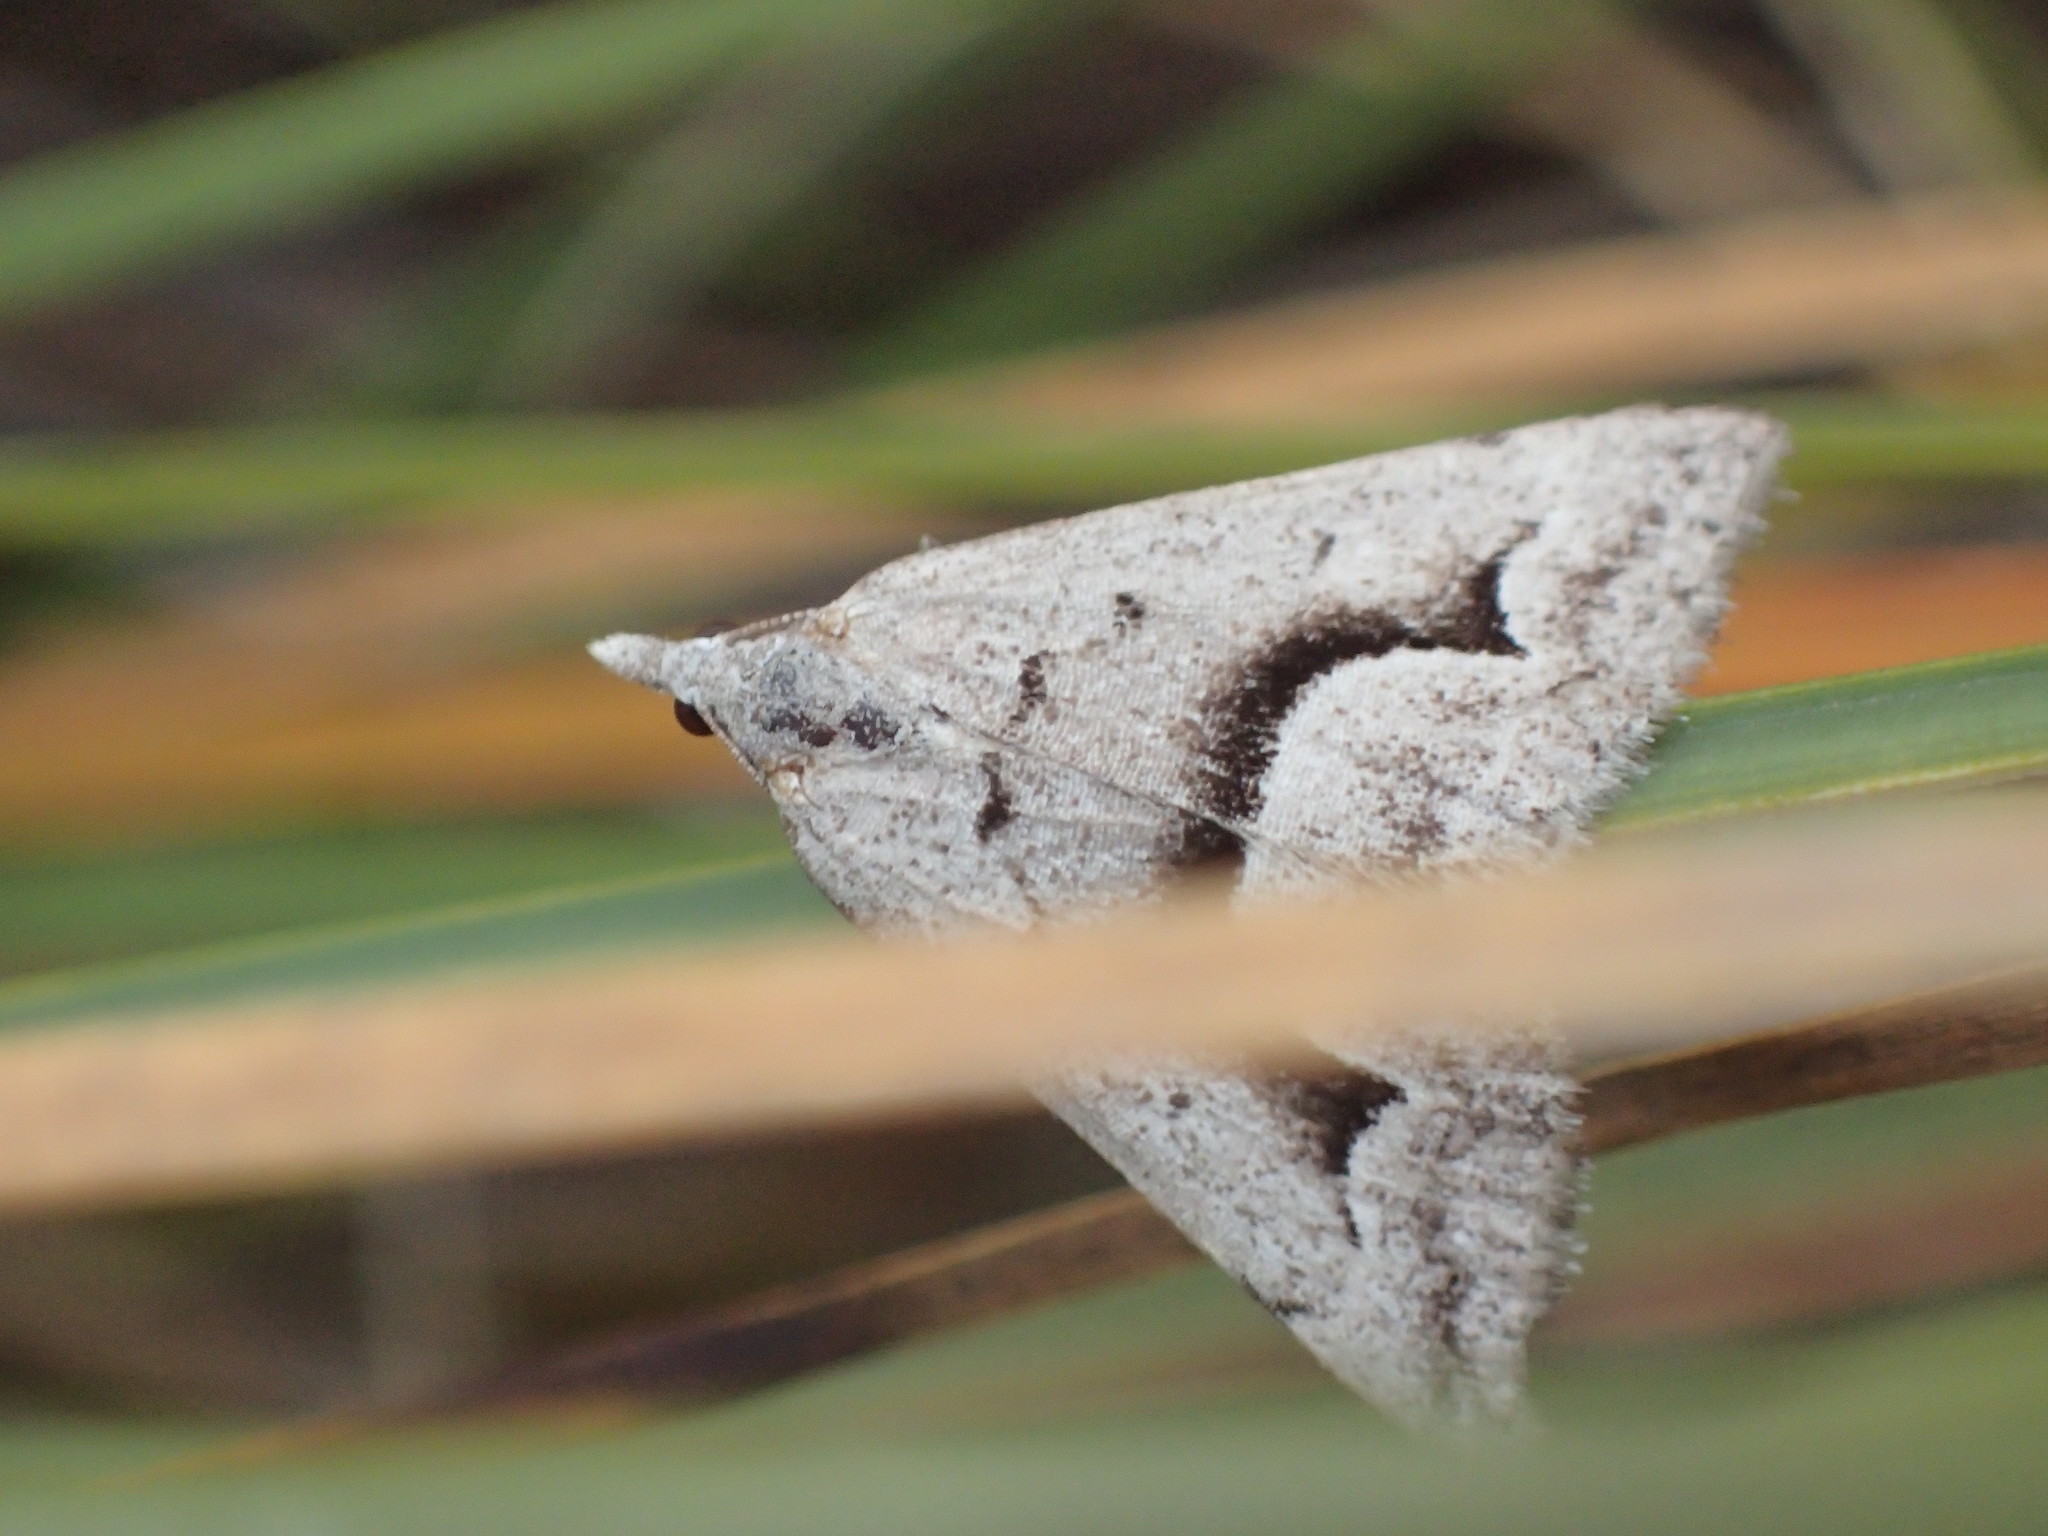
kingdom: Animalia
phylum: Arthropoda
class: Insecta
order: Lepidoptera
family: Geometridae
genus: Dichromodes
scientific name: Dichromodes euscia
